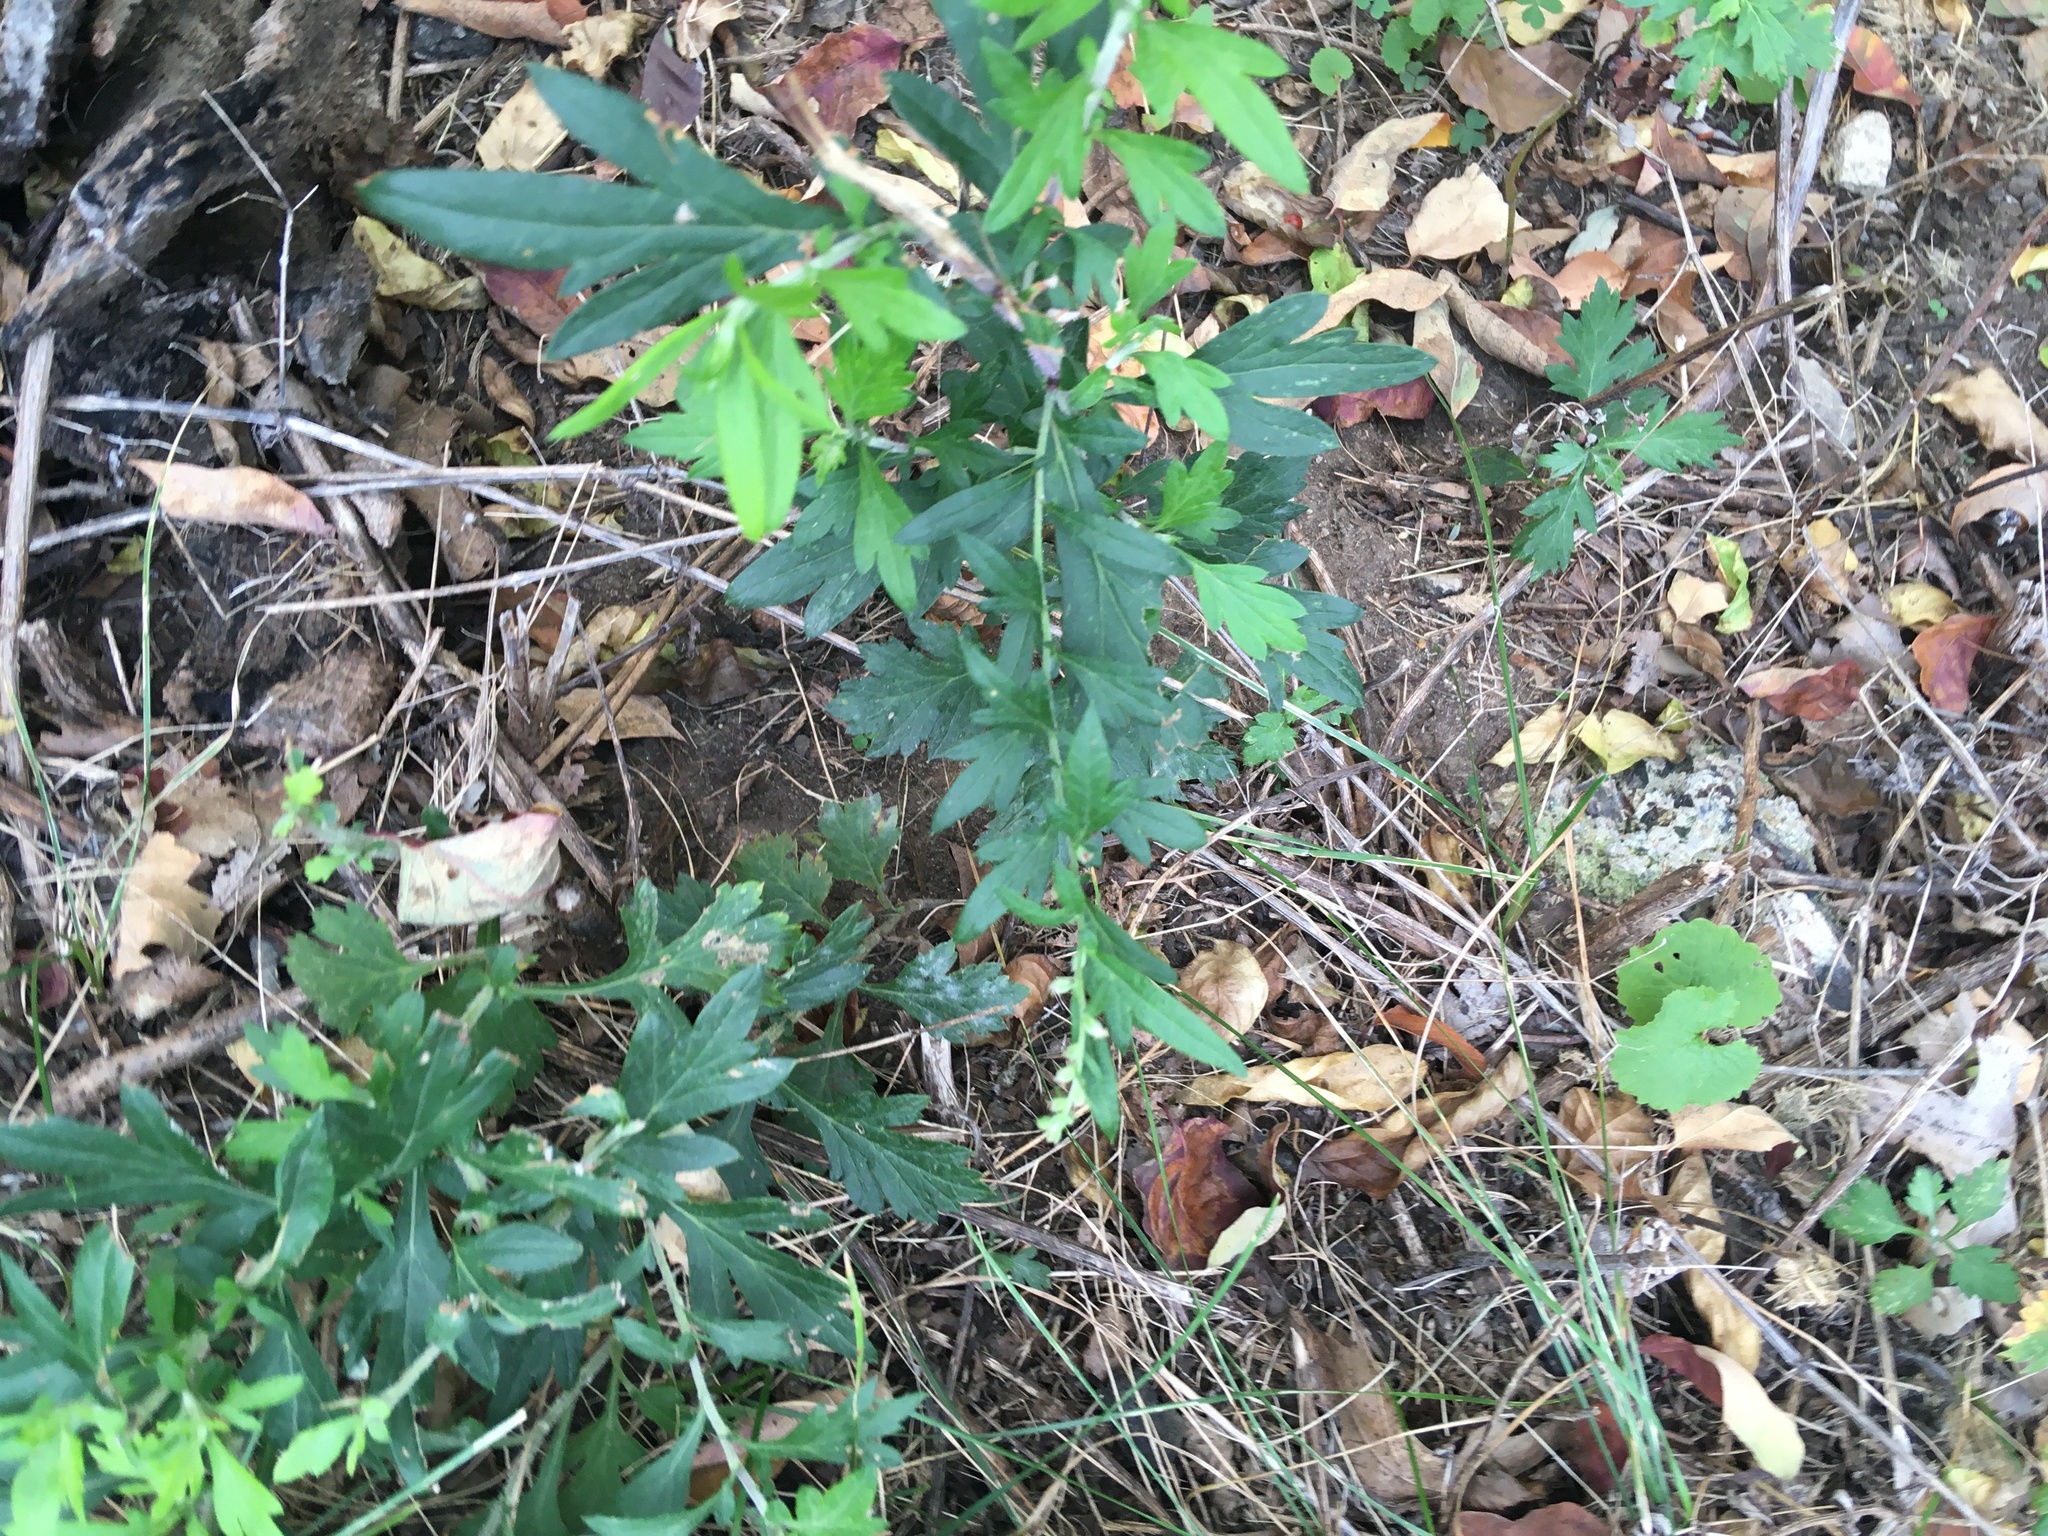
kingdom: Plantae
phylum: Tracheophyta
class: Magnoliopsida
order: Asterales
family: Asteraceae
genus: Artemisia
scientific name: Artemisia vulgaris
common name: Mugwort
